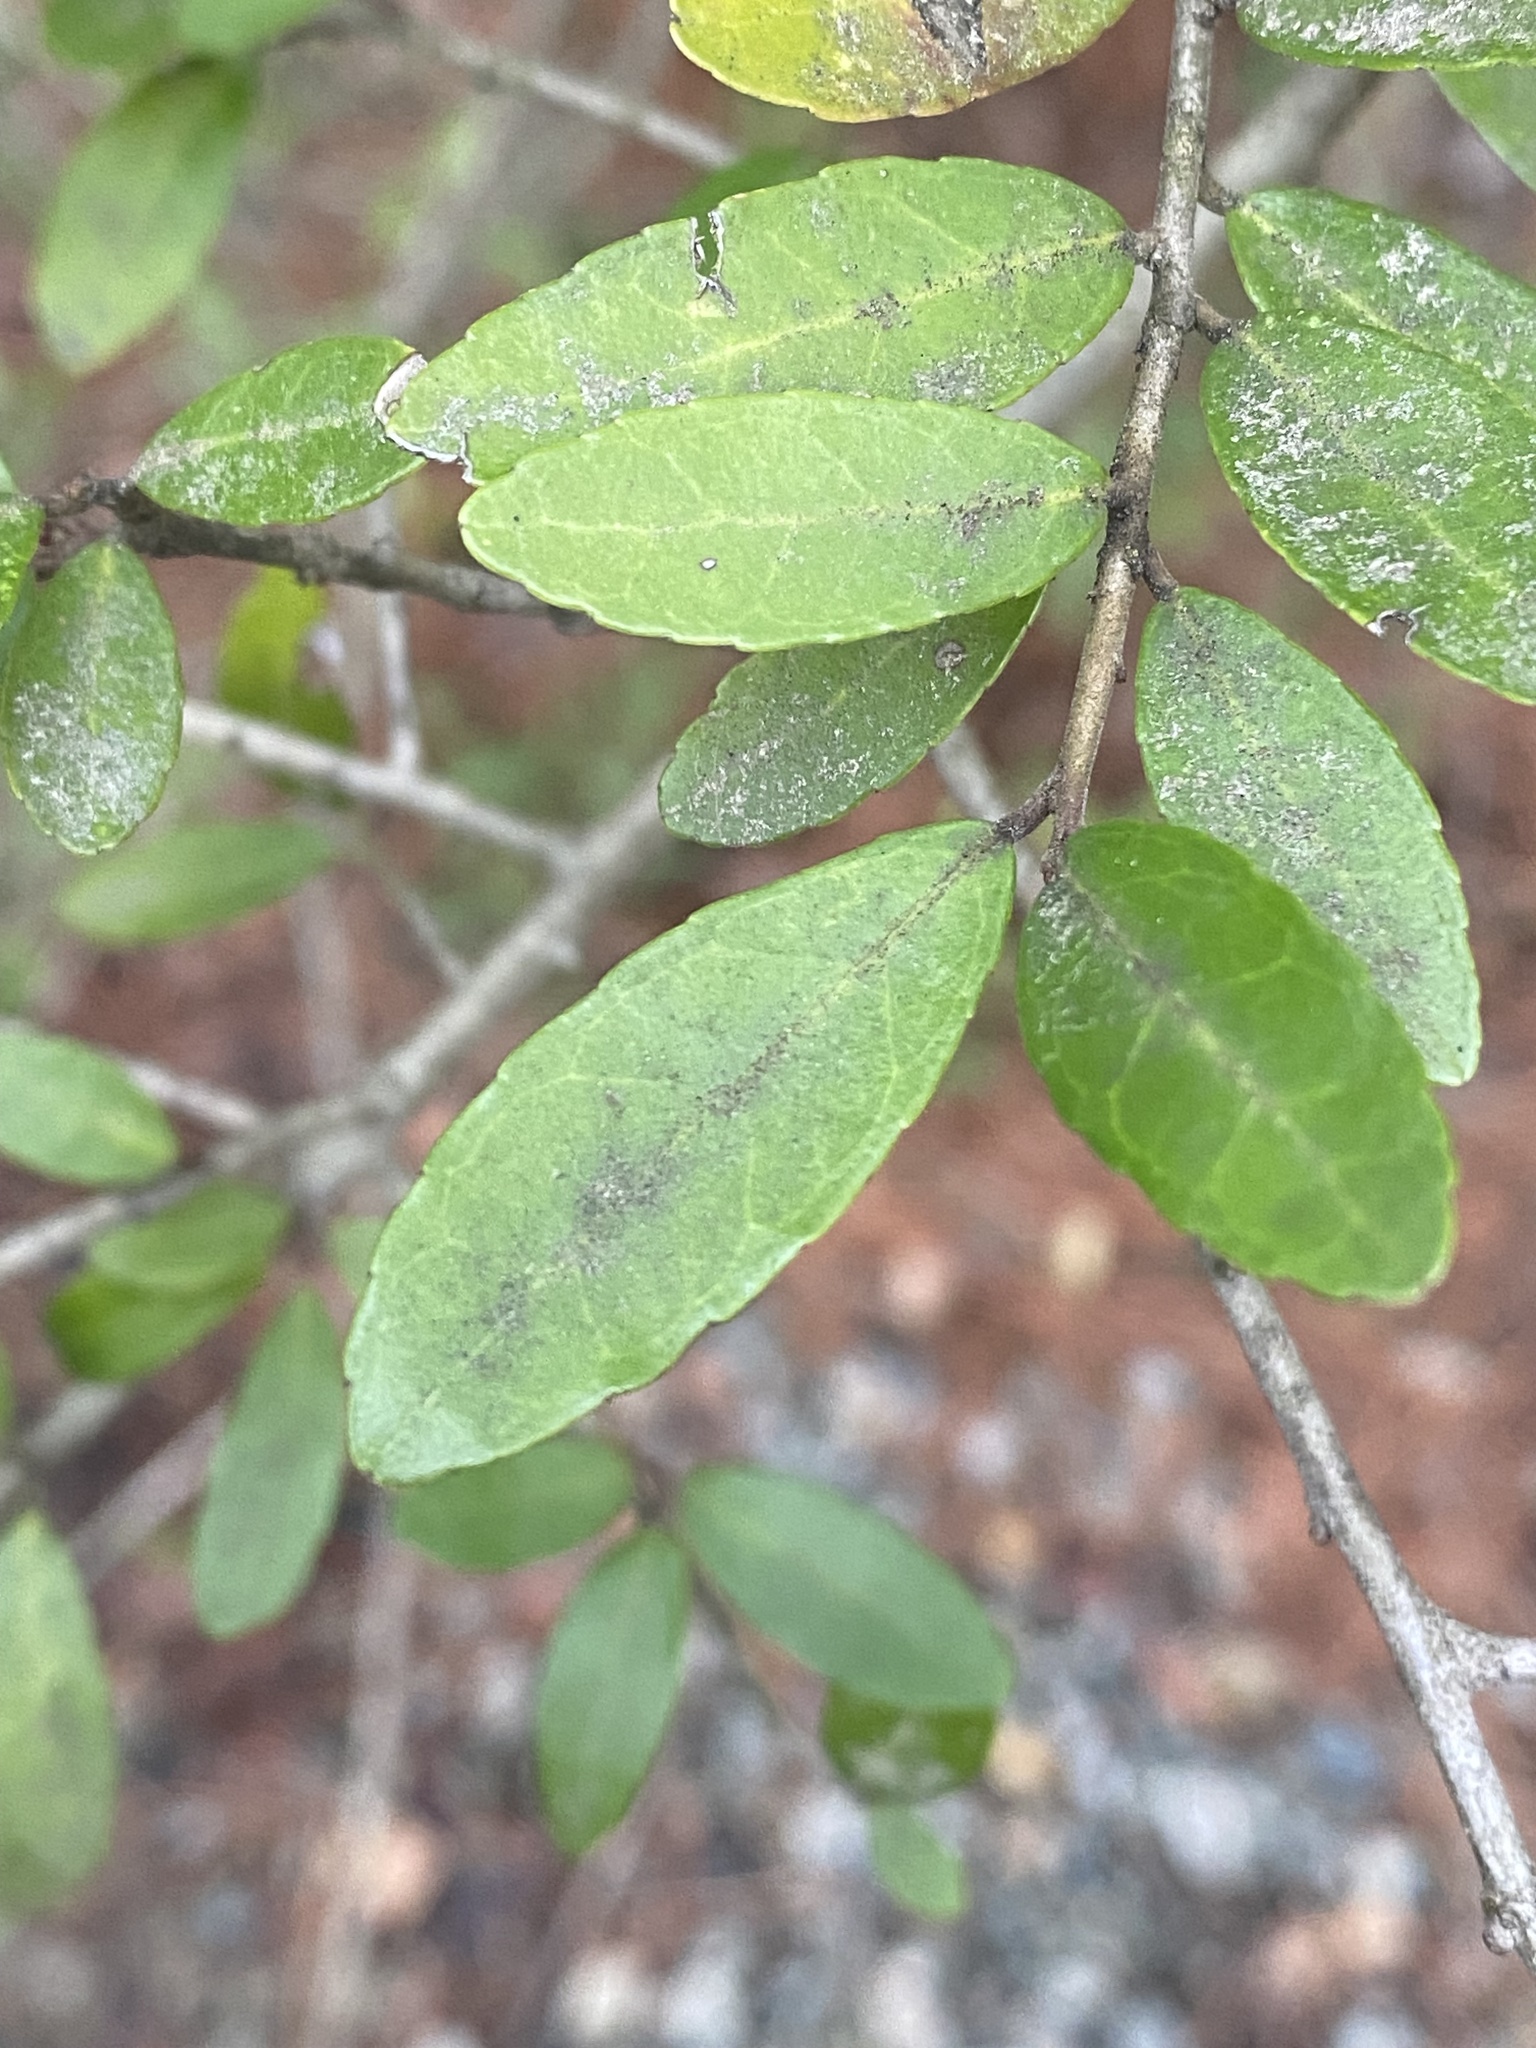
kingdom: Plantae
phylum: Tracheophyta
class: Magnoliopsida
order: Aquifoliales
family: Aquifoliaceae
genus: Ilex
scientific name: Ilex vomitoria
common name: Yaupon holly
